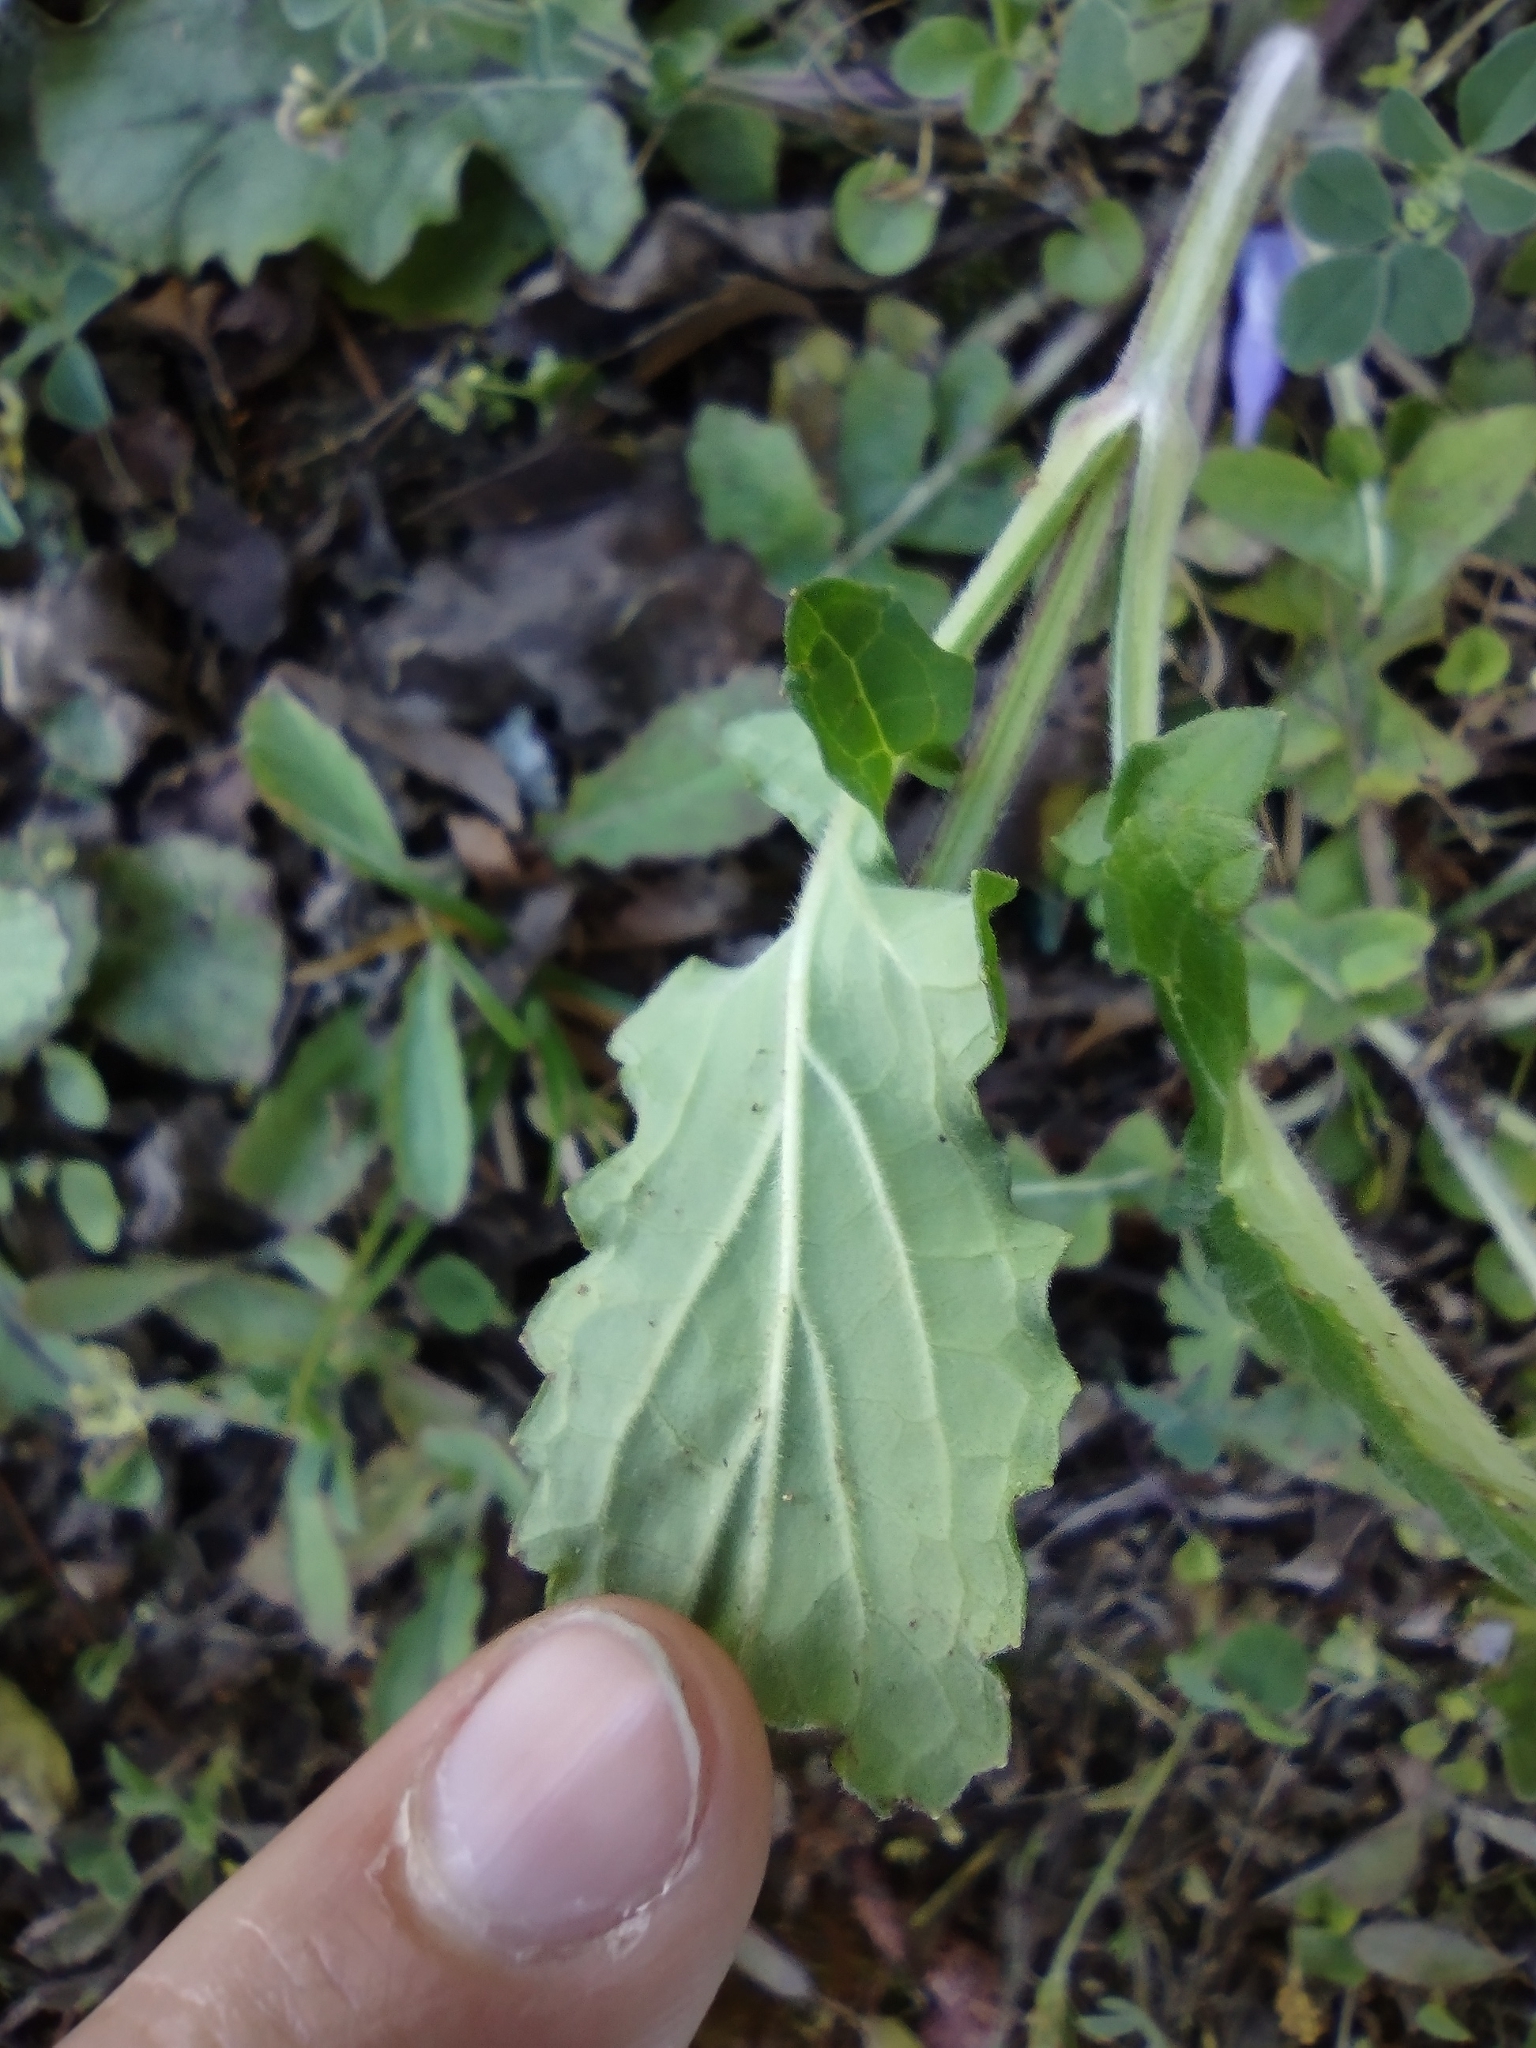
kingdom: Plantae
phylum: Tracheophyta
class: Magnoliopsida
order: Lamiales
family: Lamiaceae
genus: Salvia
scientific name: Salvia lyrata
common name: Cancerweed
